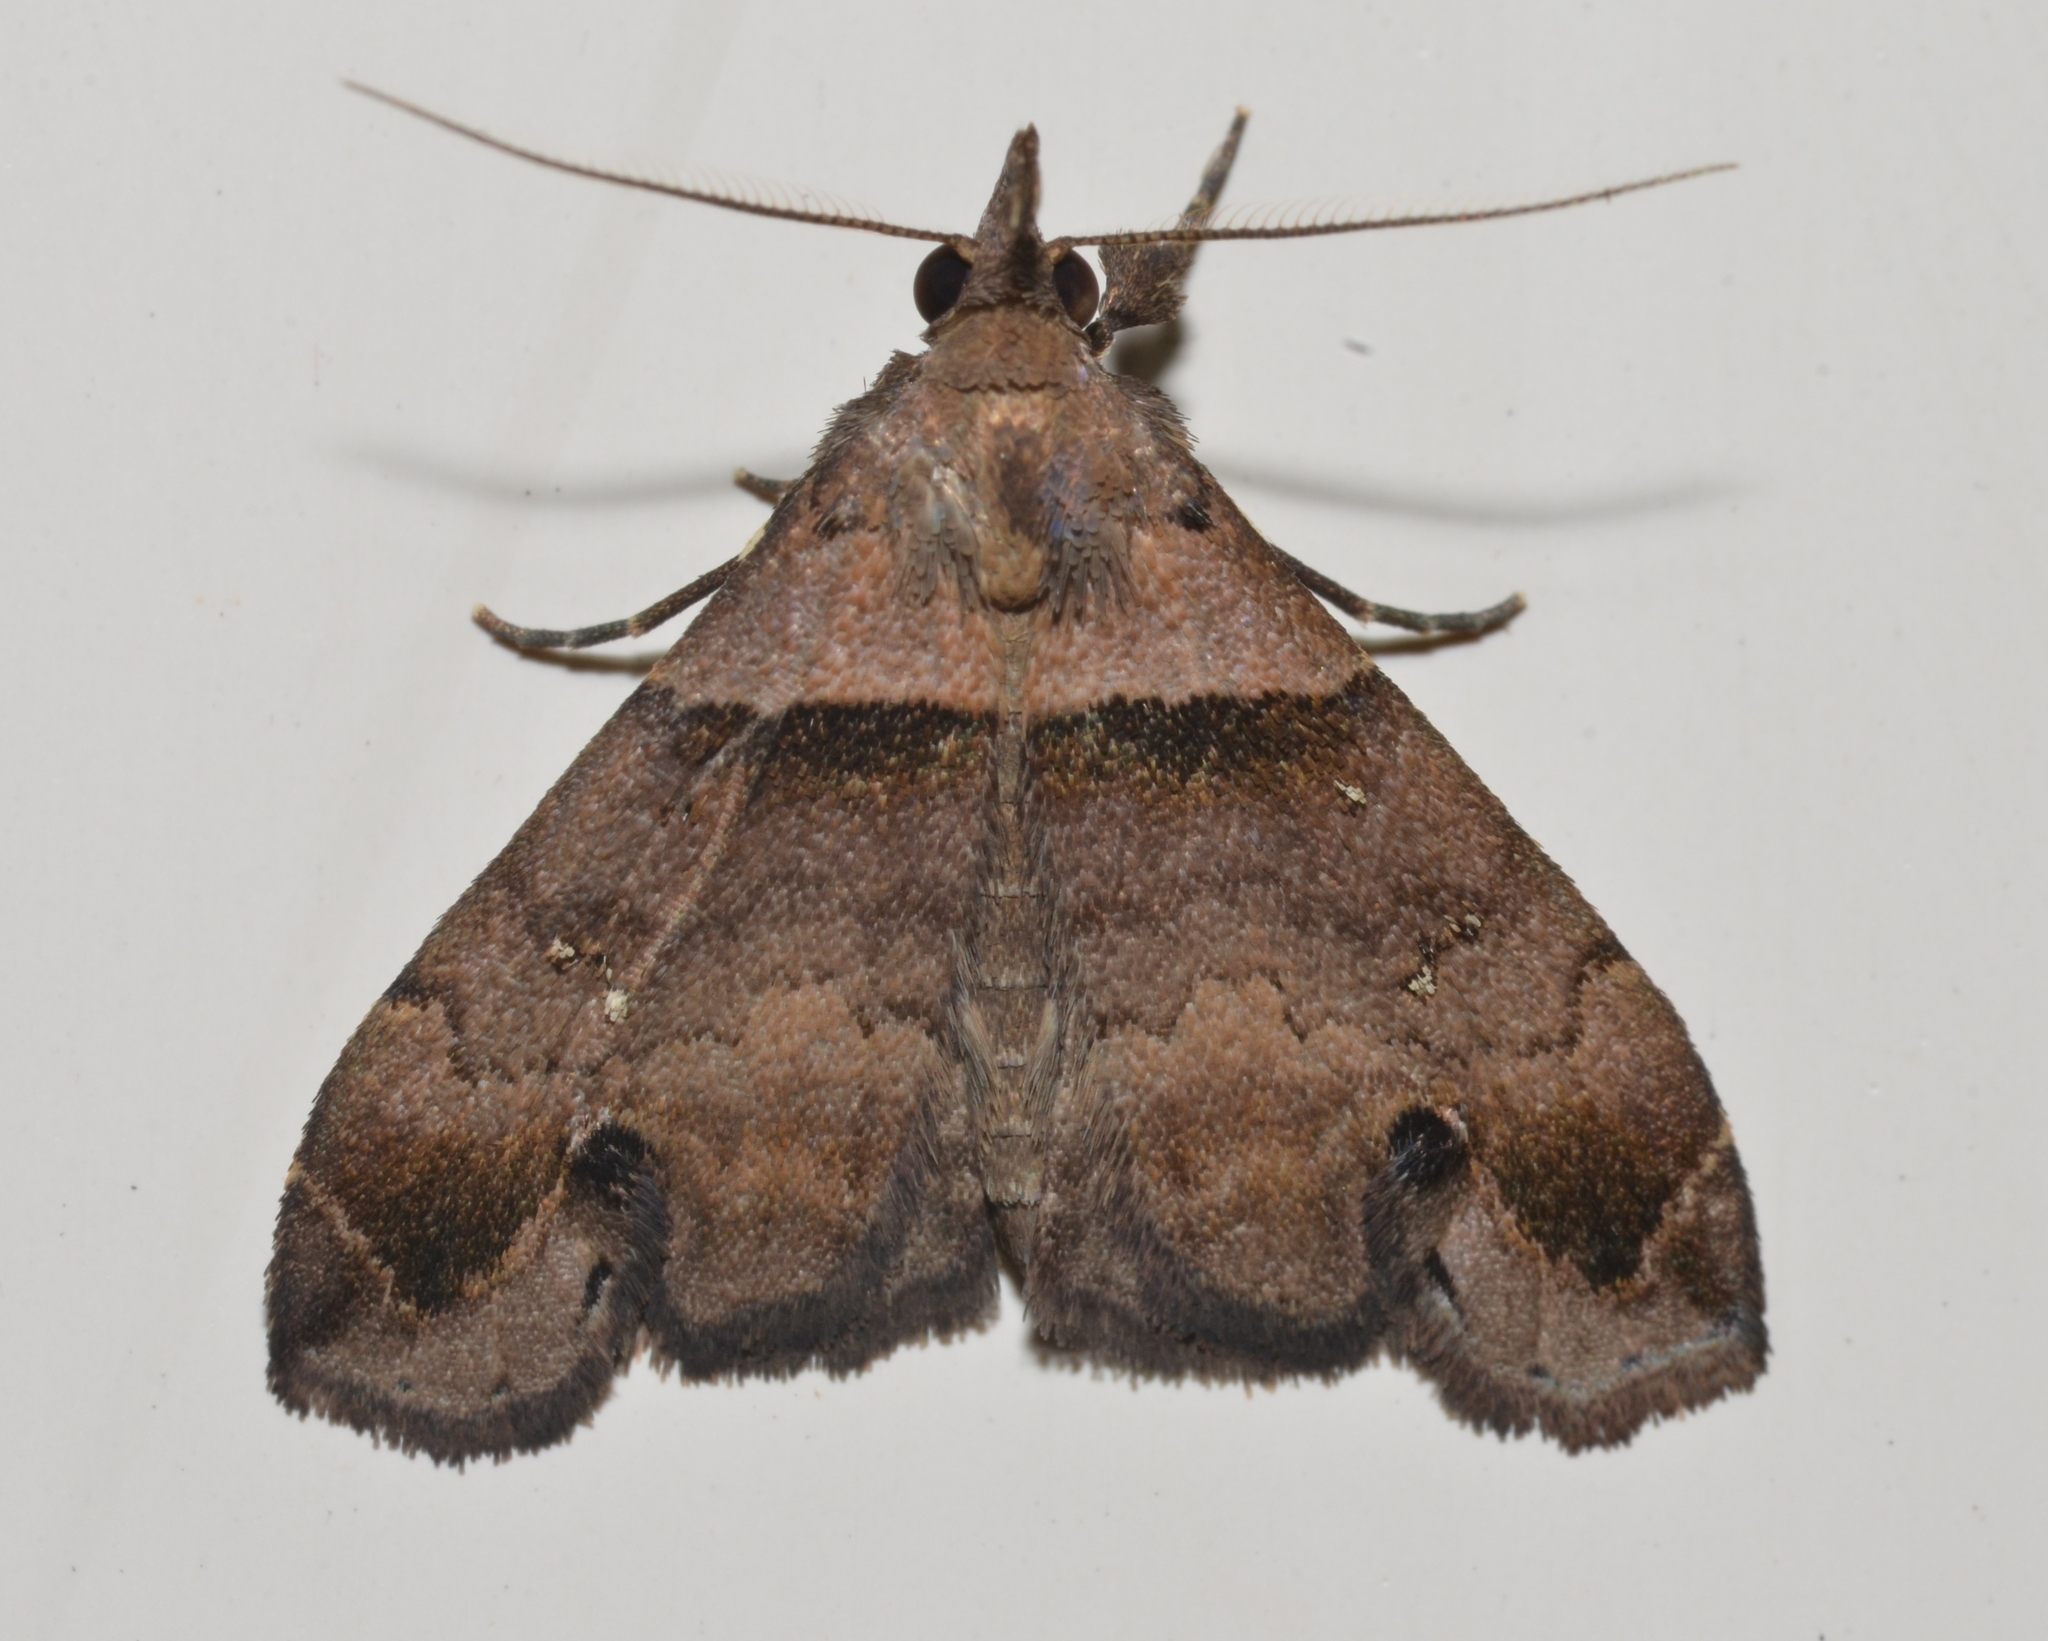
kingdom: Animalia
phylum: Arthropoda
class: Insecta
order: Lepidoptera
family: Erebidae
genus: Lascoria
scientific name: Lascoria ambigualis
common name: Ambiguous moth
